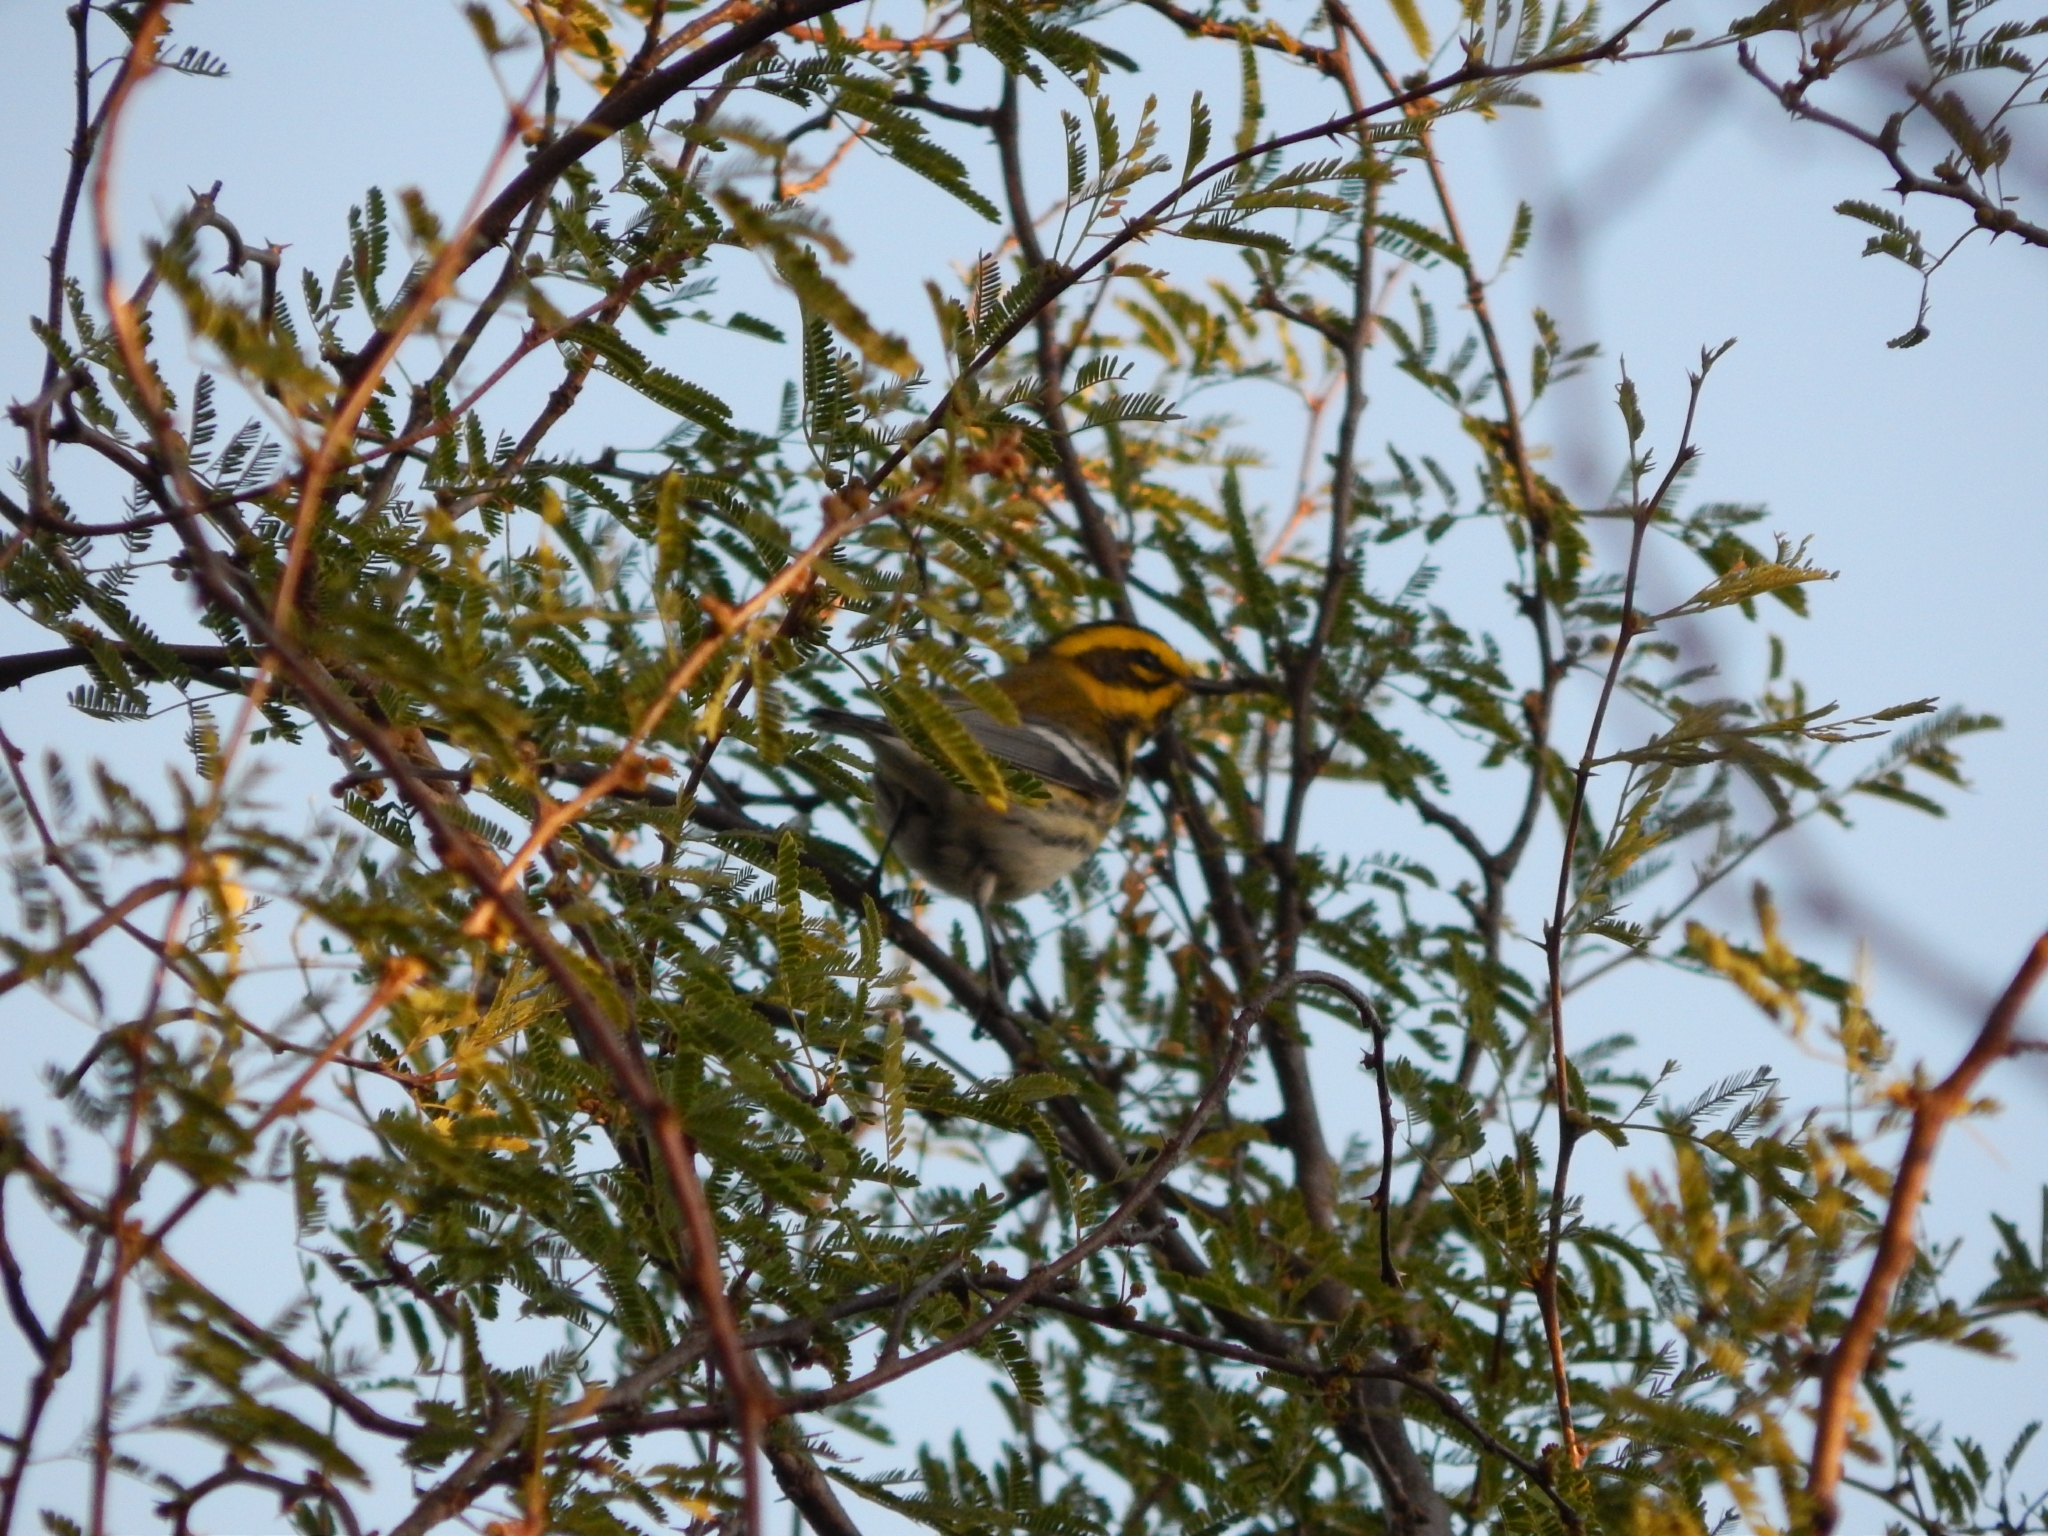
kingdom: Animalia
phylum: Chordata
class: Aves
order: Passeriformes
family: Parulidae
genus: Setophaga
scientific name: Setophaga townsendi
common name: Townsend's warbler
